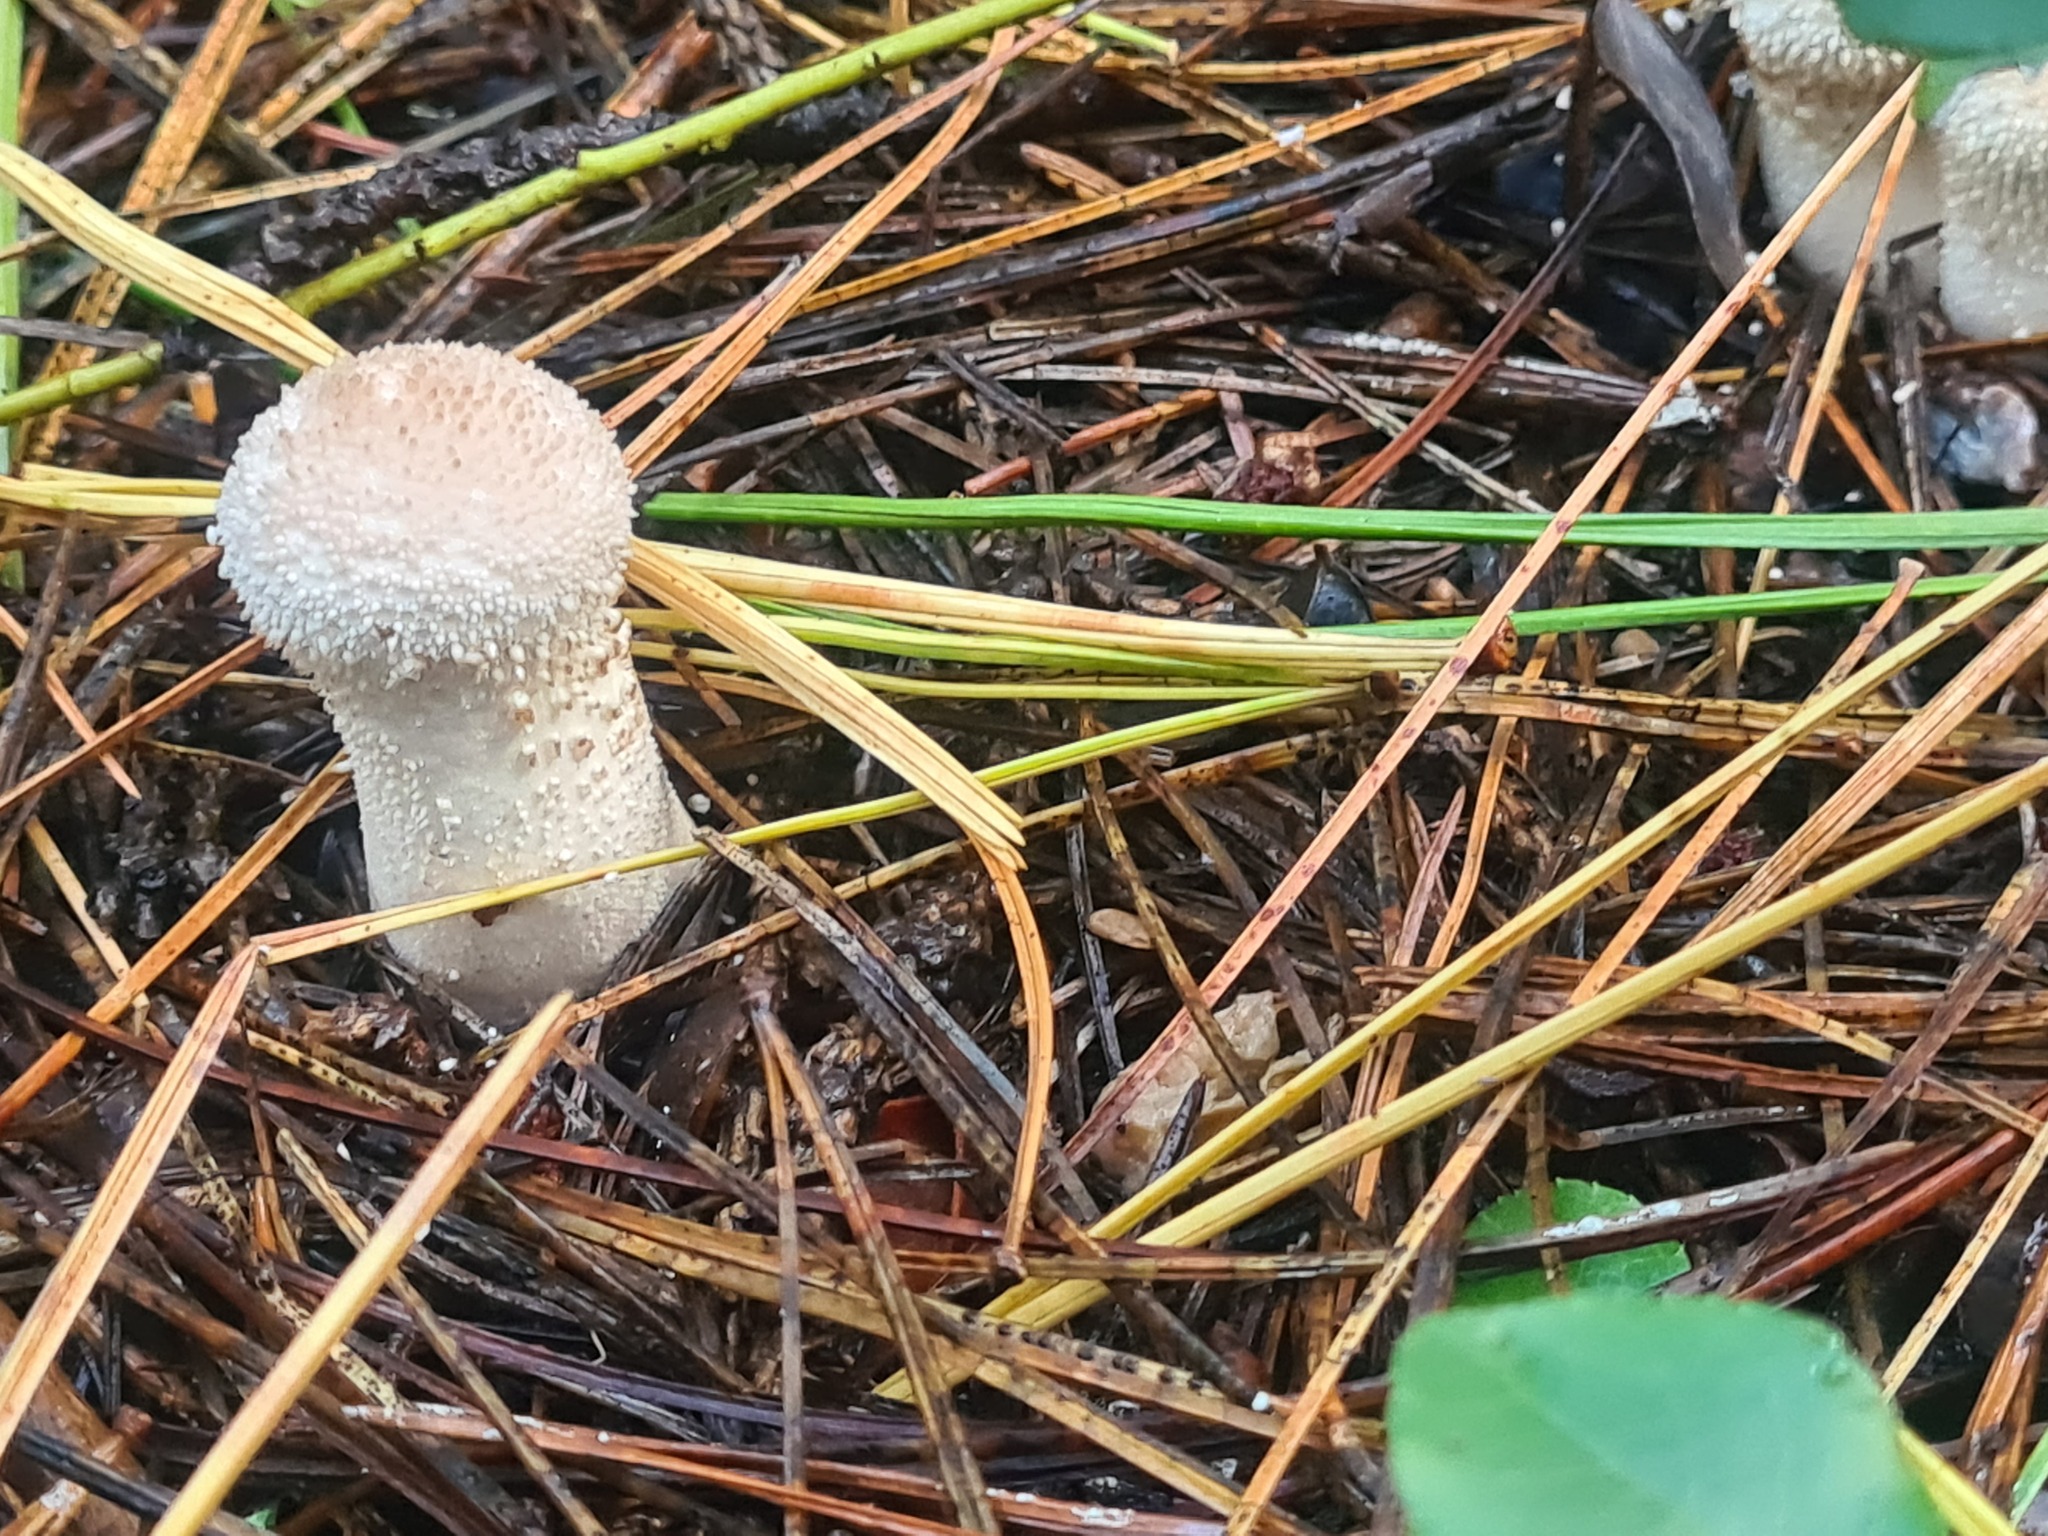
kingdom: Fungi
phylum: Basidiomycota
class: Agaricomycetes
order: Agaricales
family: Lycoperdaceae
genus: Lycoperdon
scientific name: Lycoperdon perlatum
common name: Common puffball
